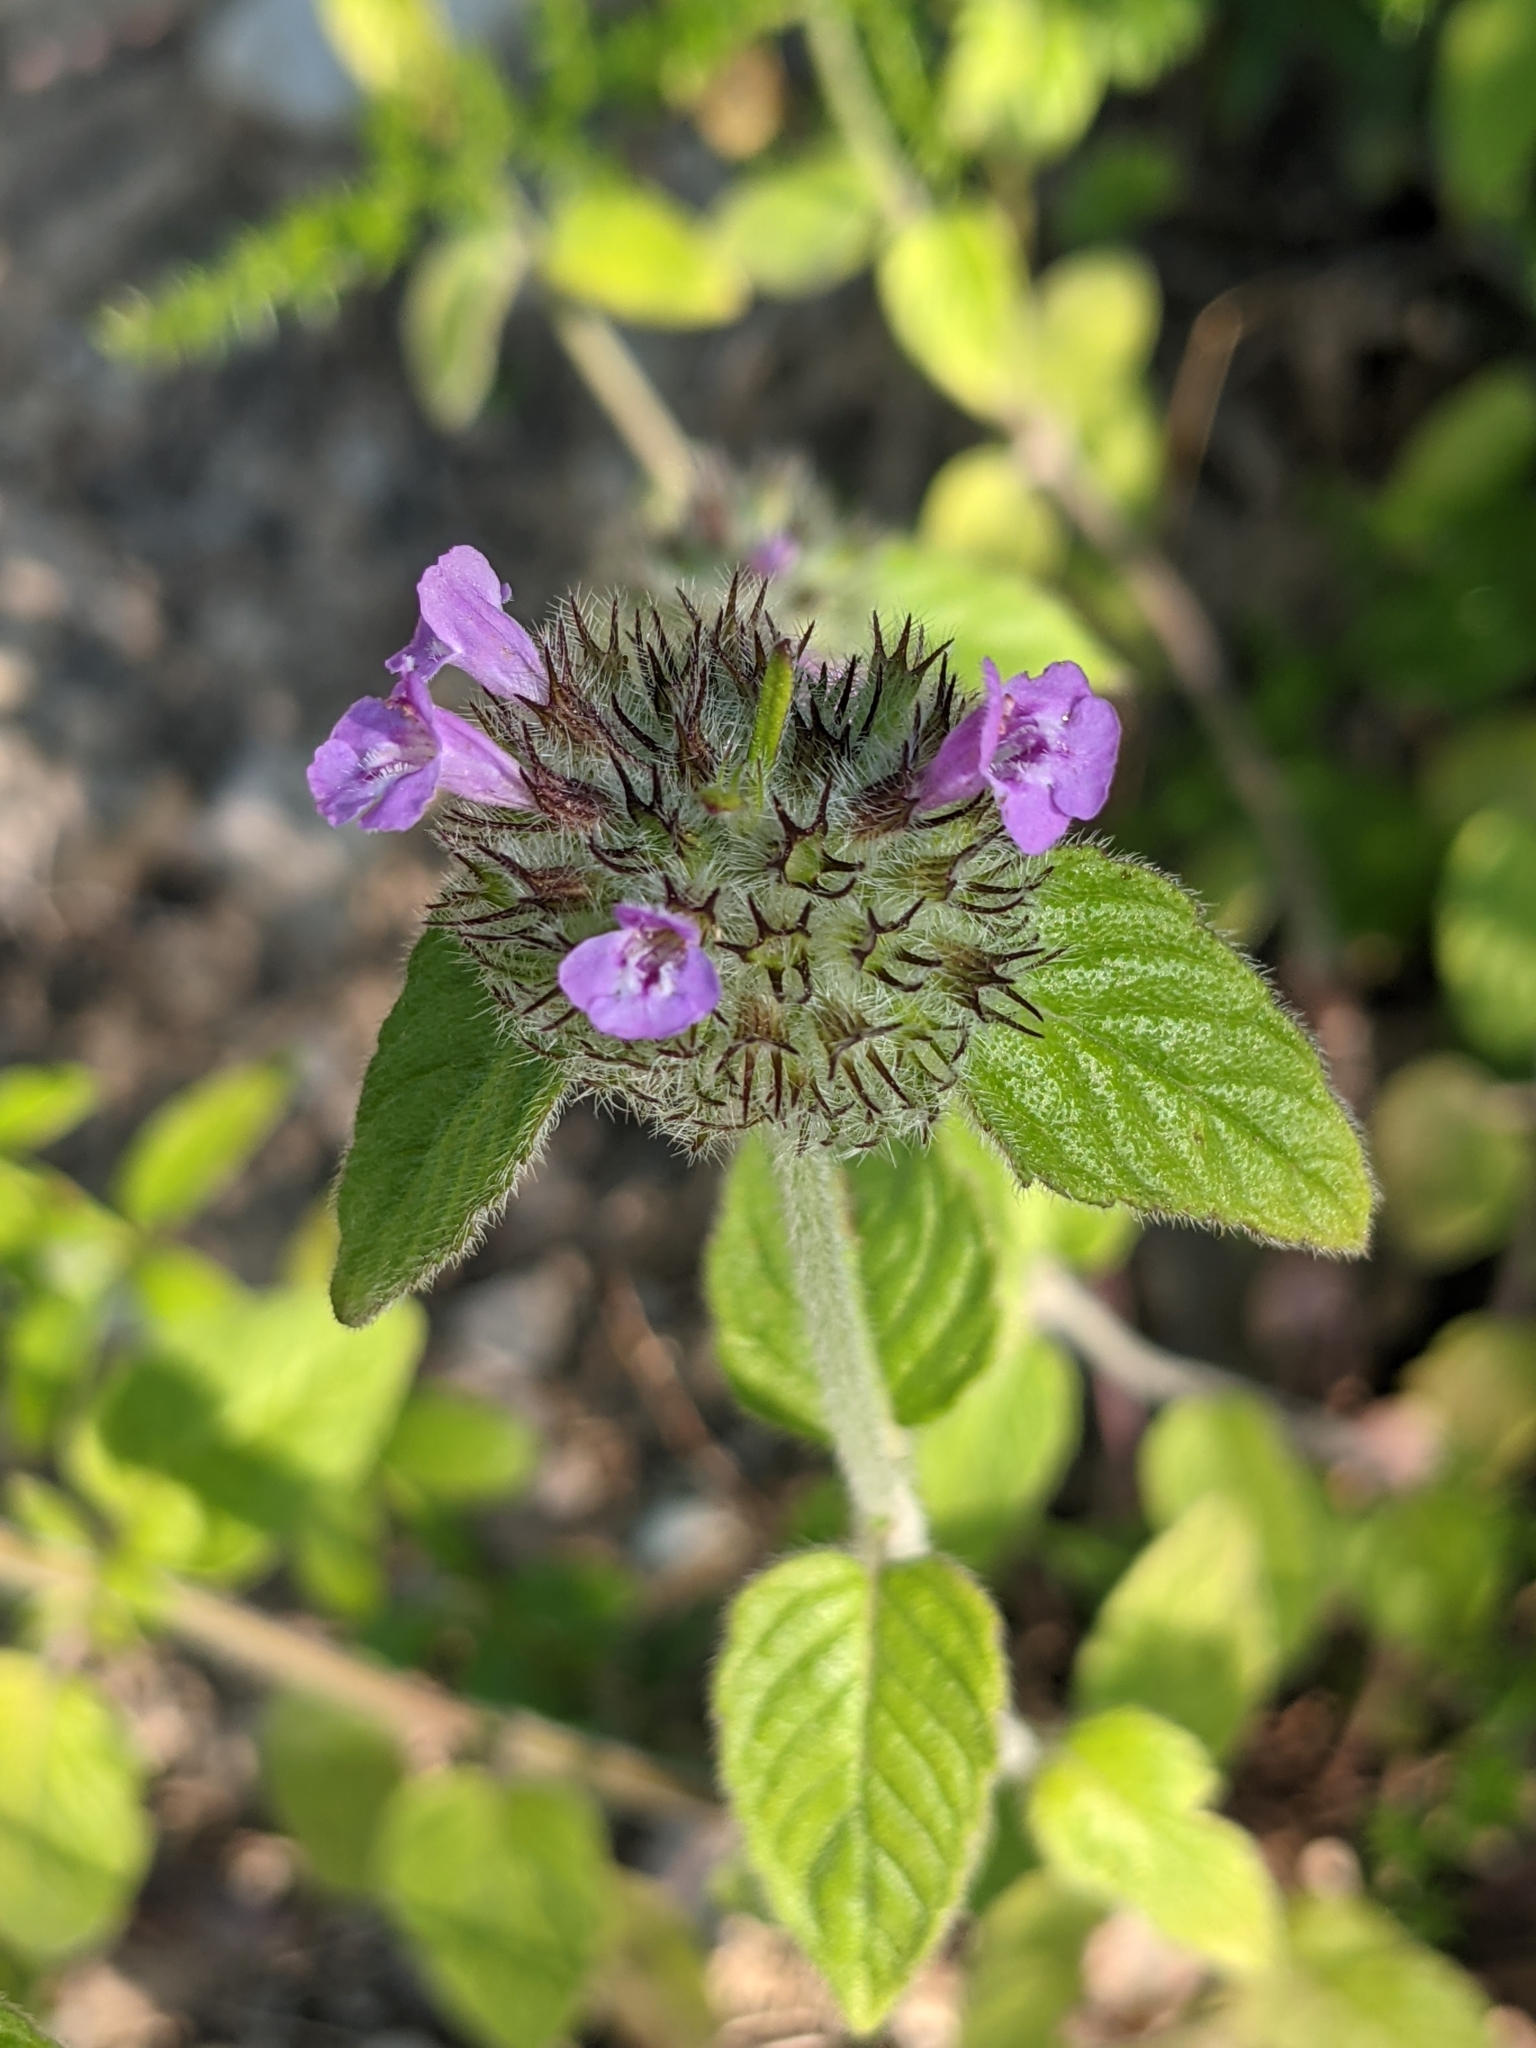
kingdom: Plantae
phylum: Tracheophyta
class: Magnoliopsida
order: Lamiales
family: Lamiaceae
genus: Clinopodium
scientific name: Clinopodium vulgare
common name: Wild basil
